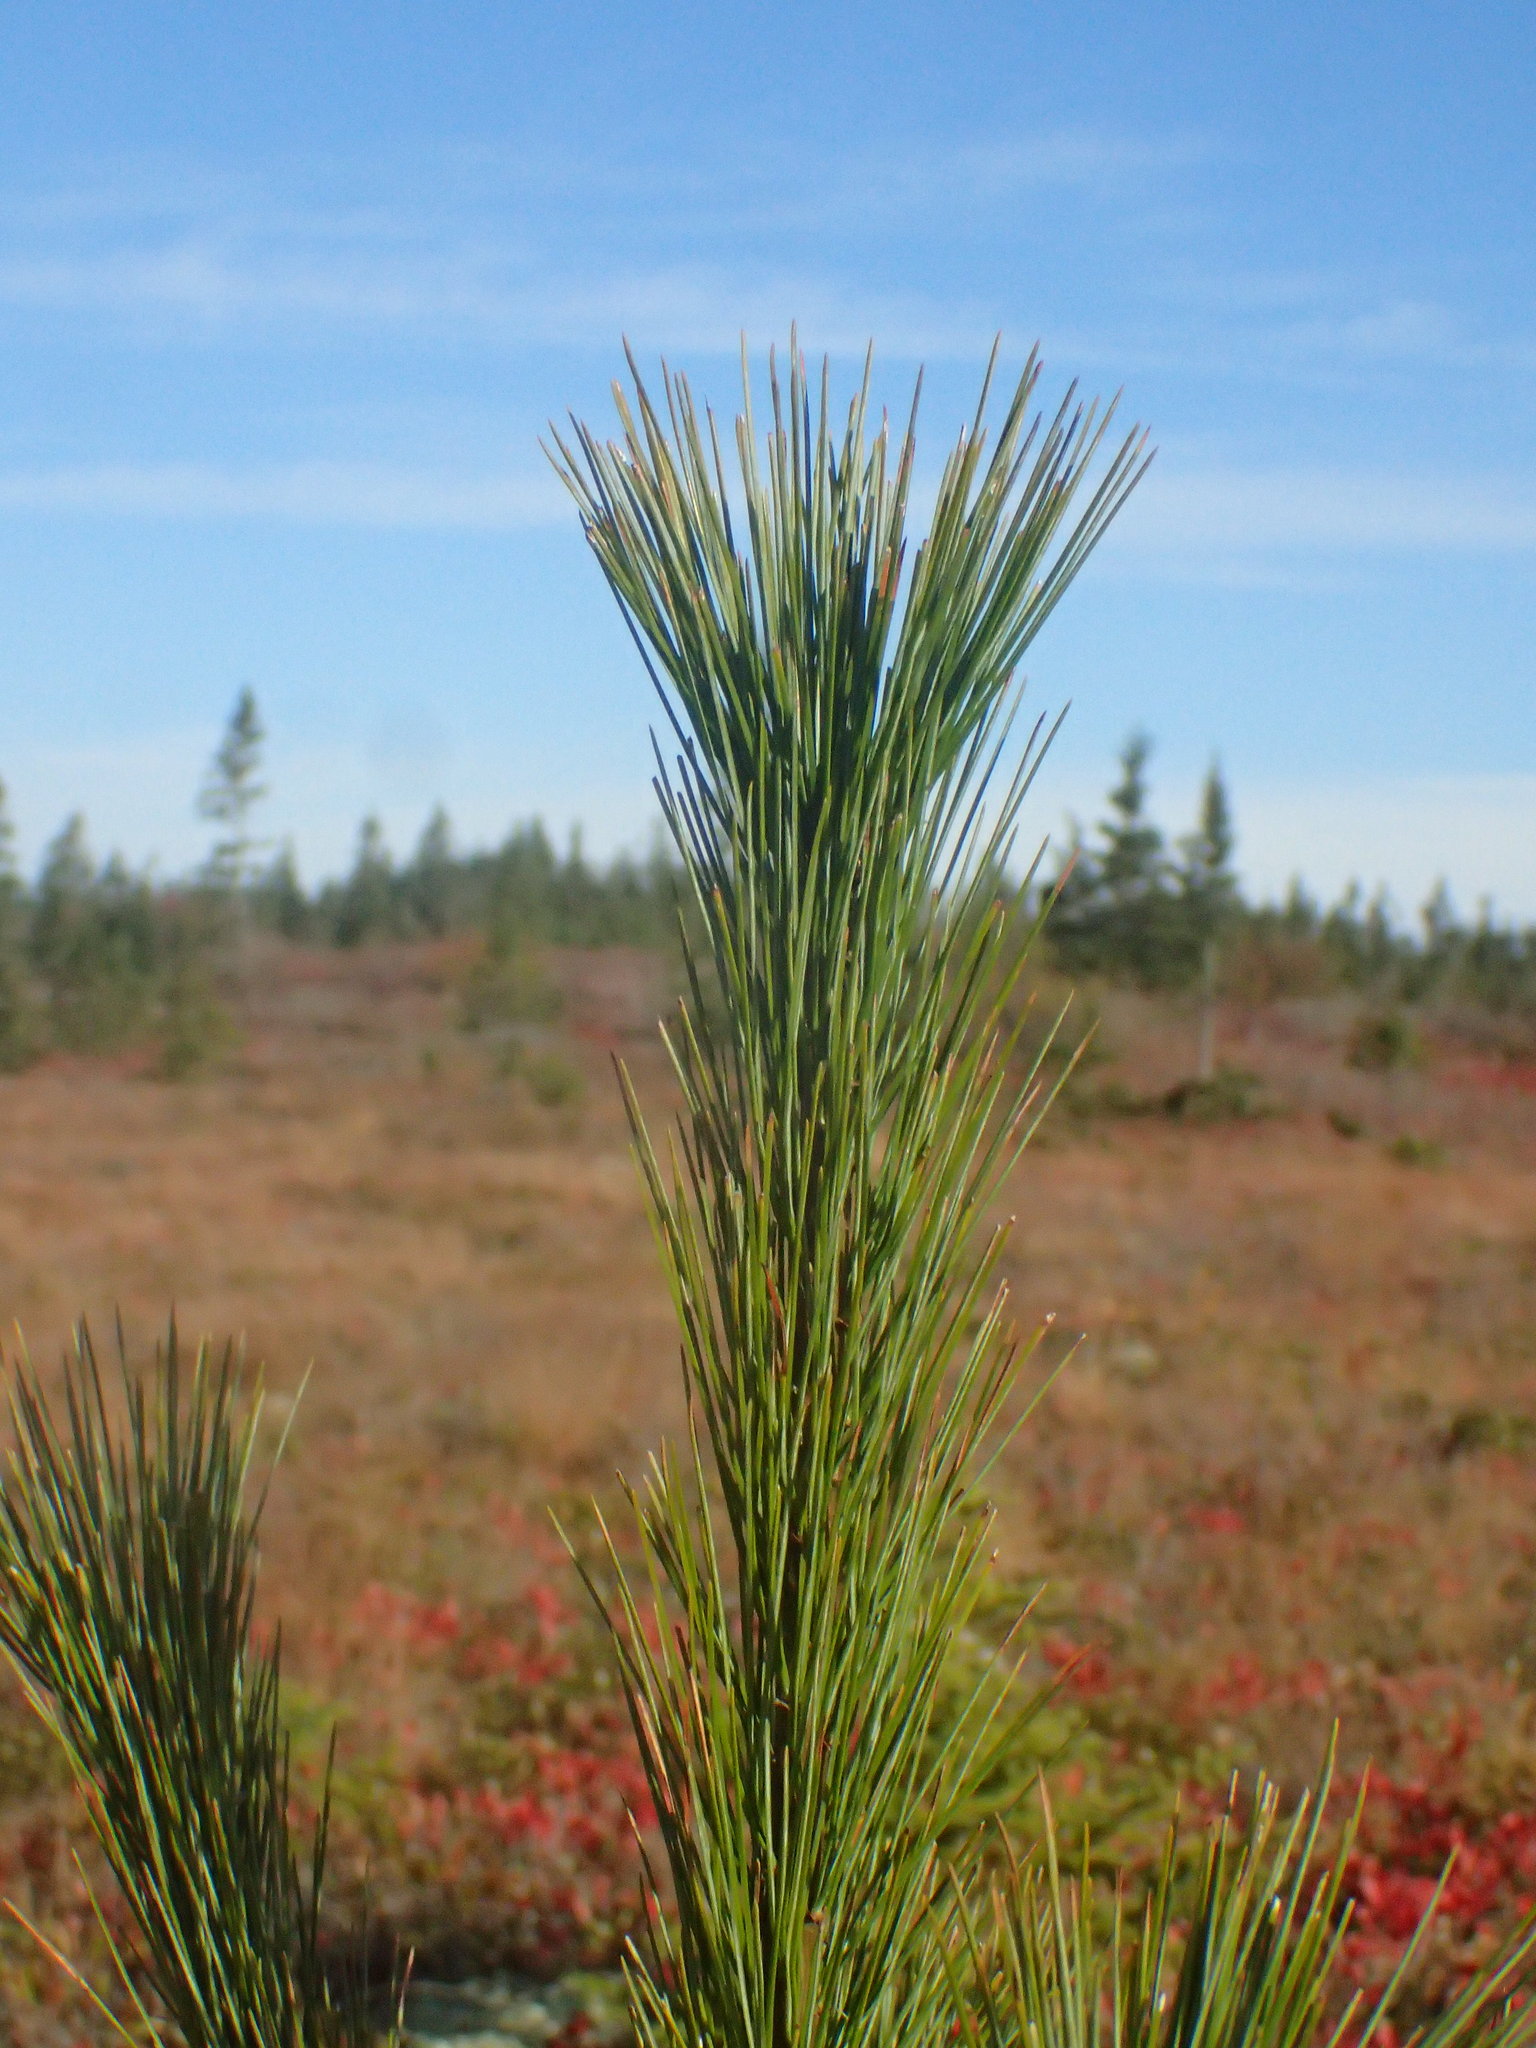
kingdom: Plantae
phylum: Tracheophyta
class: Pinopsida
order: Pinales
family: Pinaceae
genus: Pinus
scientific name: Pinus strobus
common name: Weymouth pine
